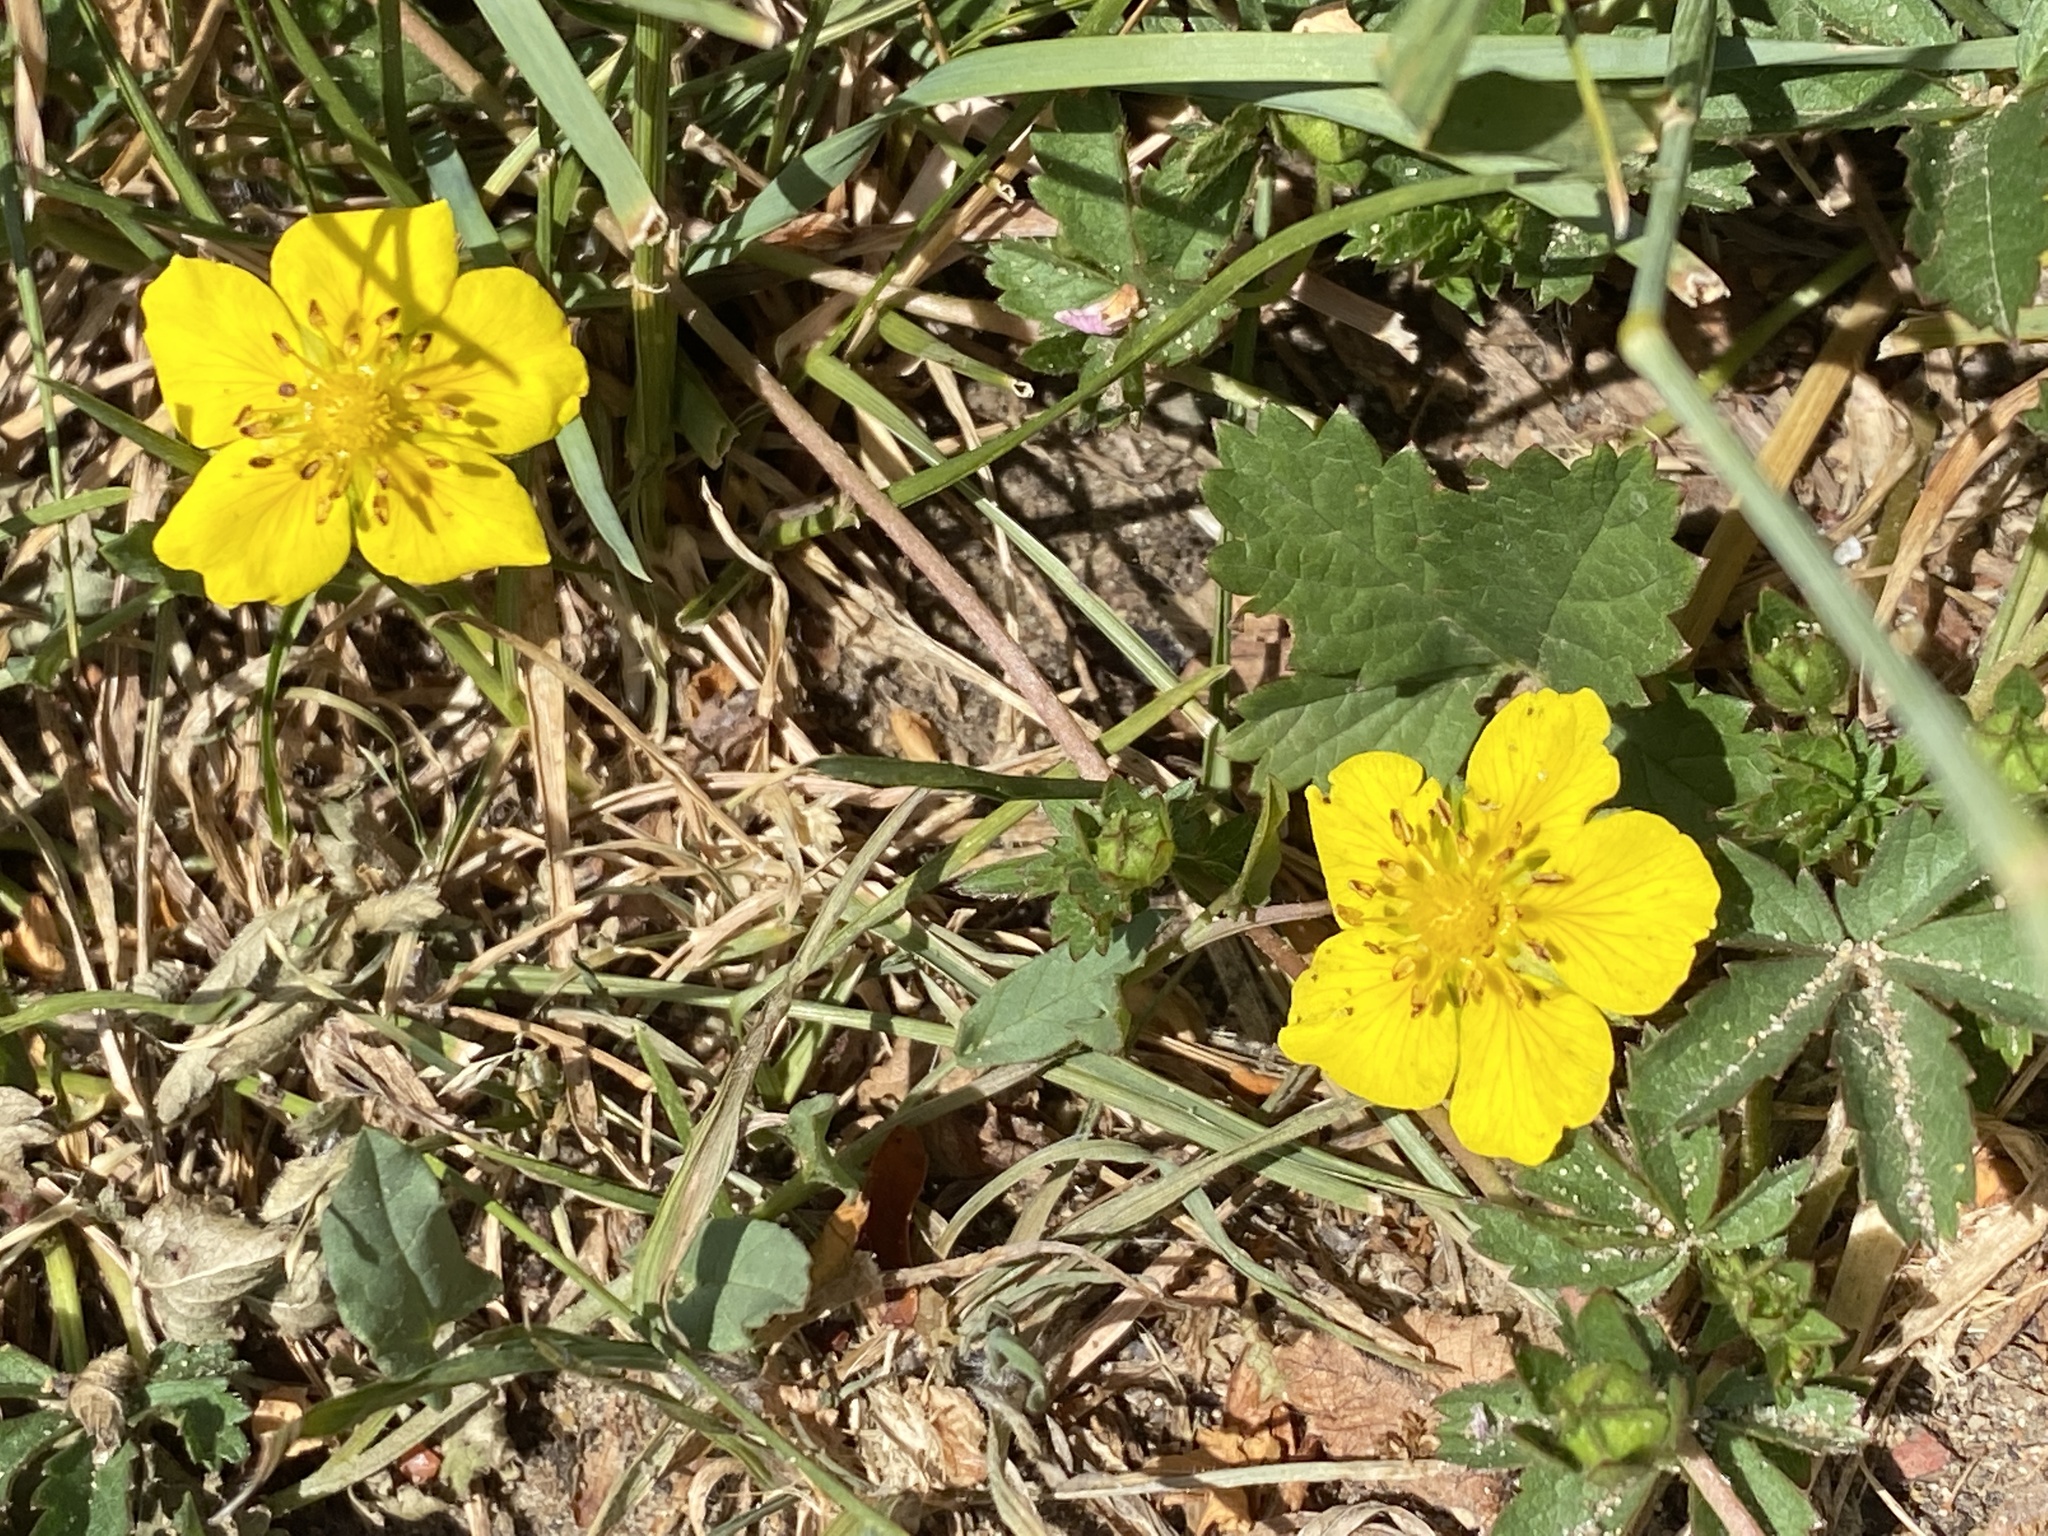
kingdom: Plantae
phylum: Tracheophyta
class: Magnoliopsida
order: Rosales
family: Rosaceae
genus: Potentilla
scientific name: Potentilla reptans
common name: Creeping cinquefoil
